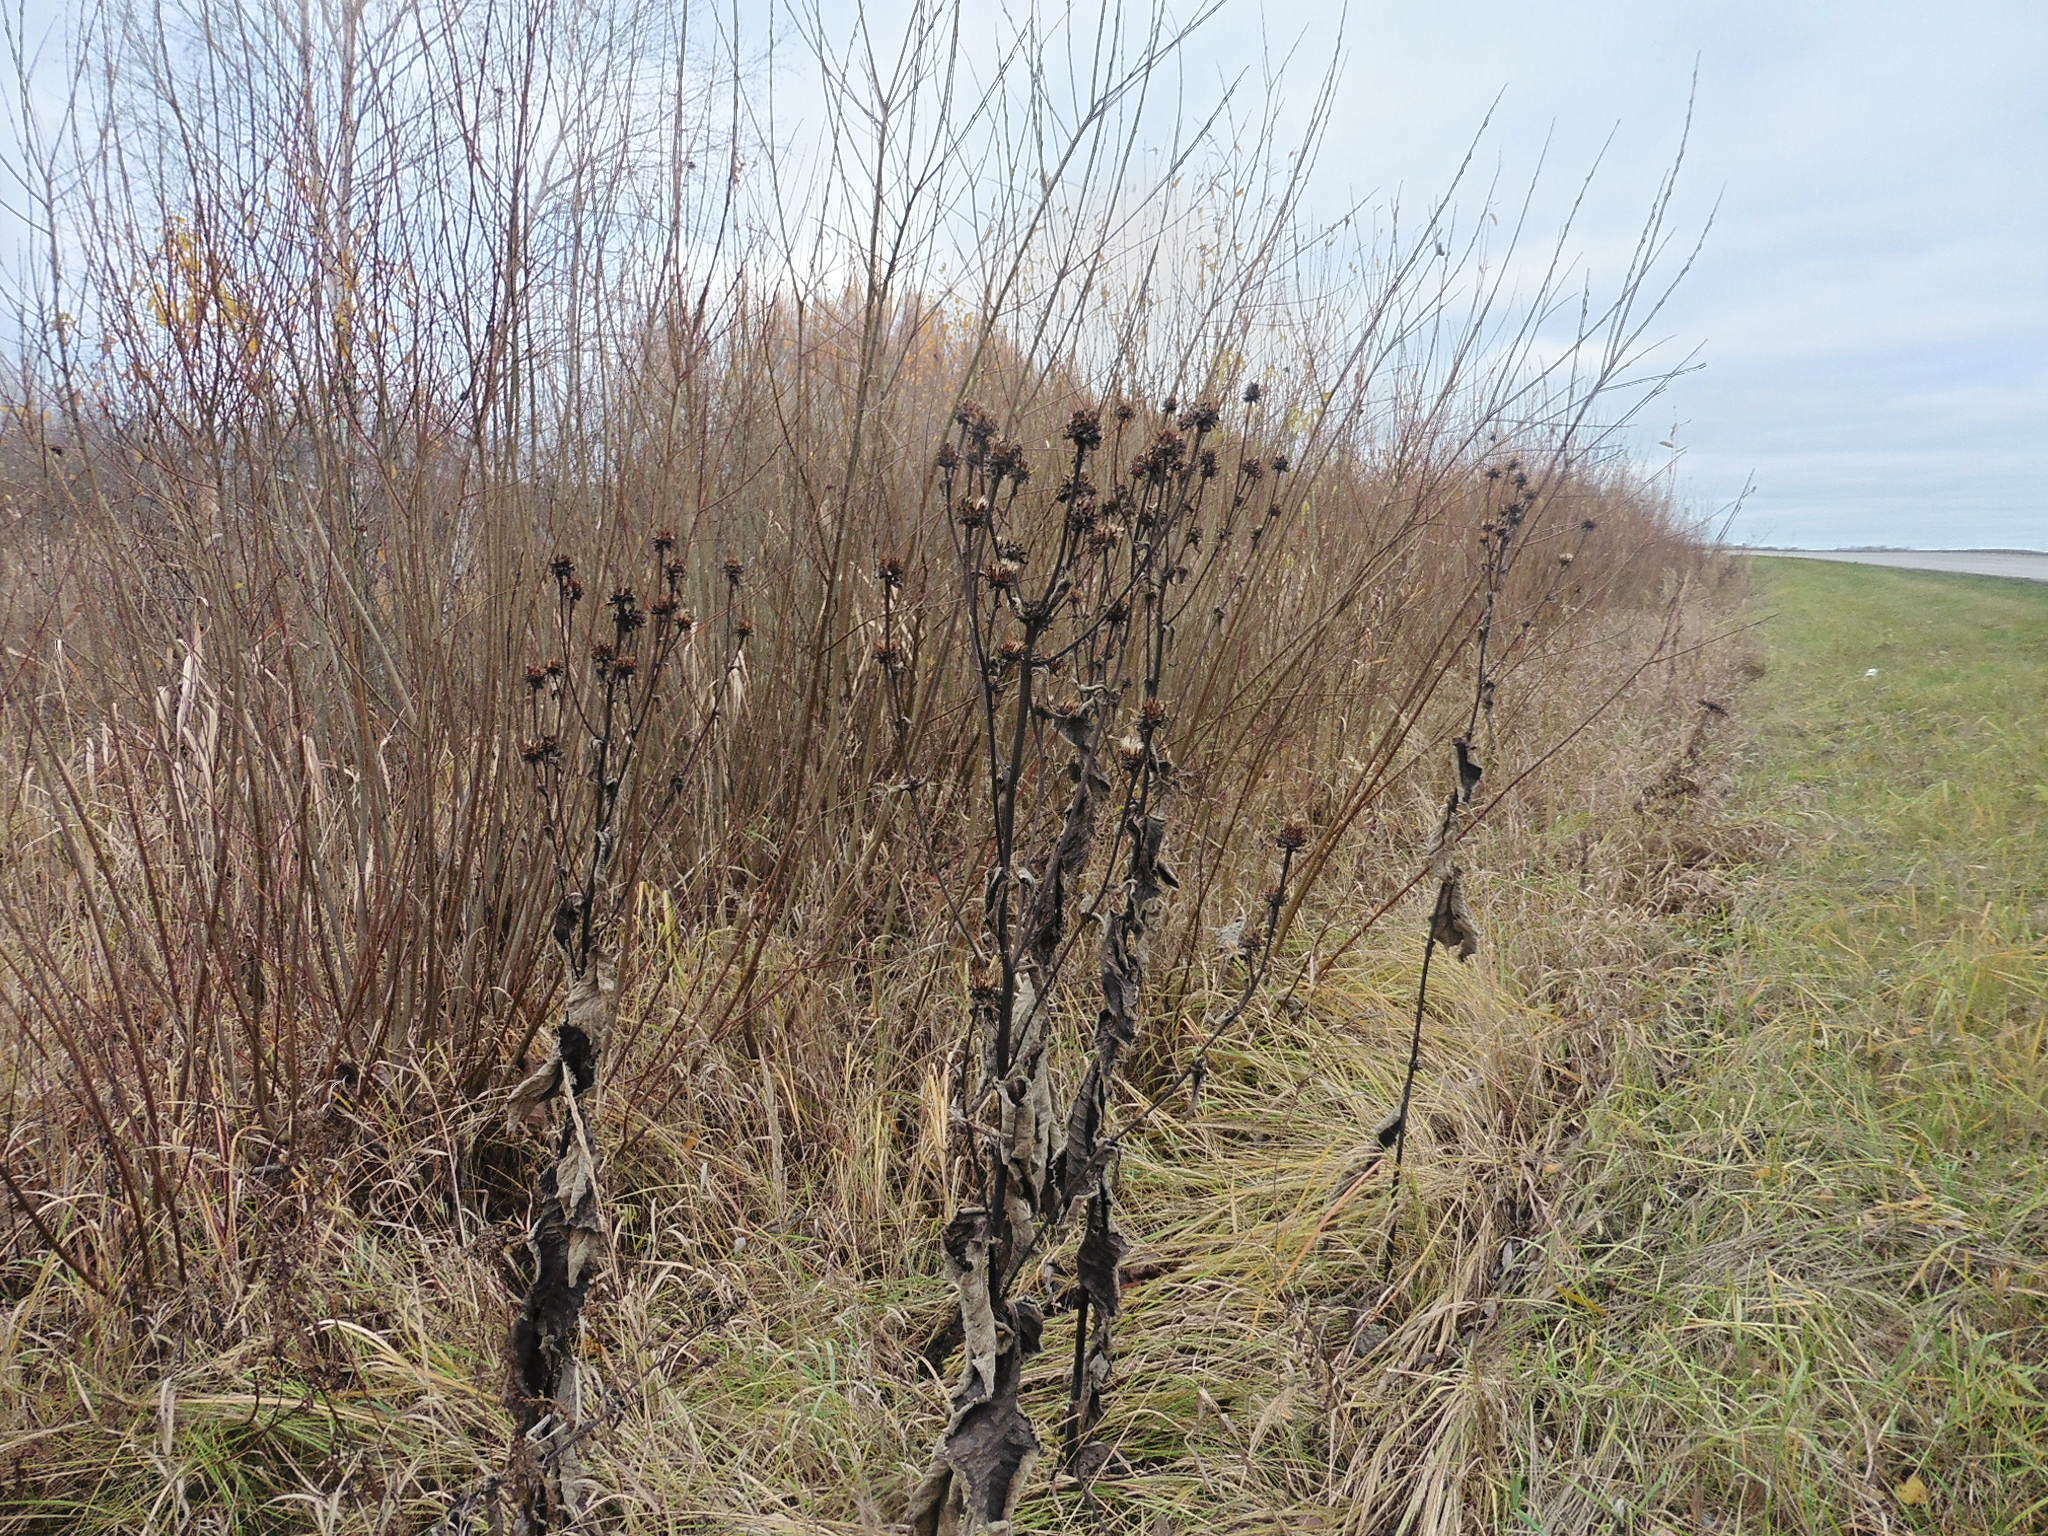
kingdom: Plantae
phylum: Tracheophyta
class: Magnoliopsida
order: Asterales
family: Asteraceae
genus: Inula
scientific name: Inula helenium
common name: Elecampane
